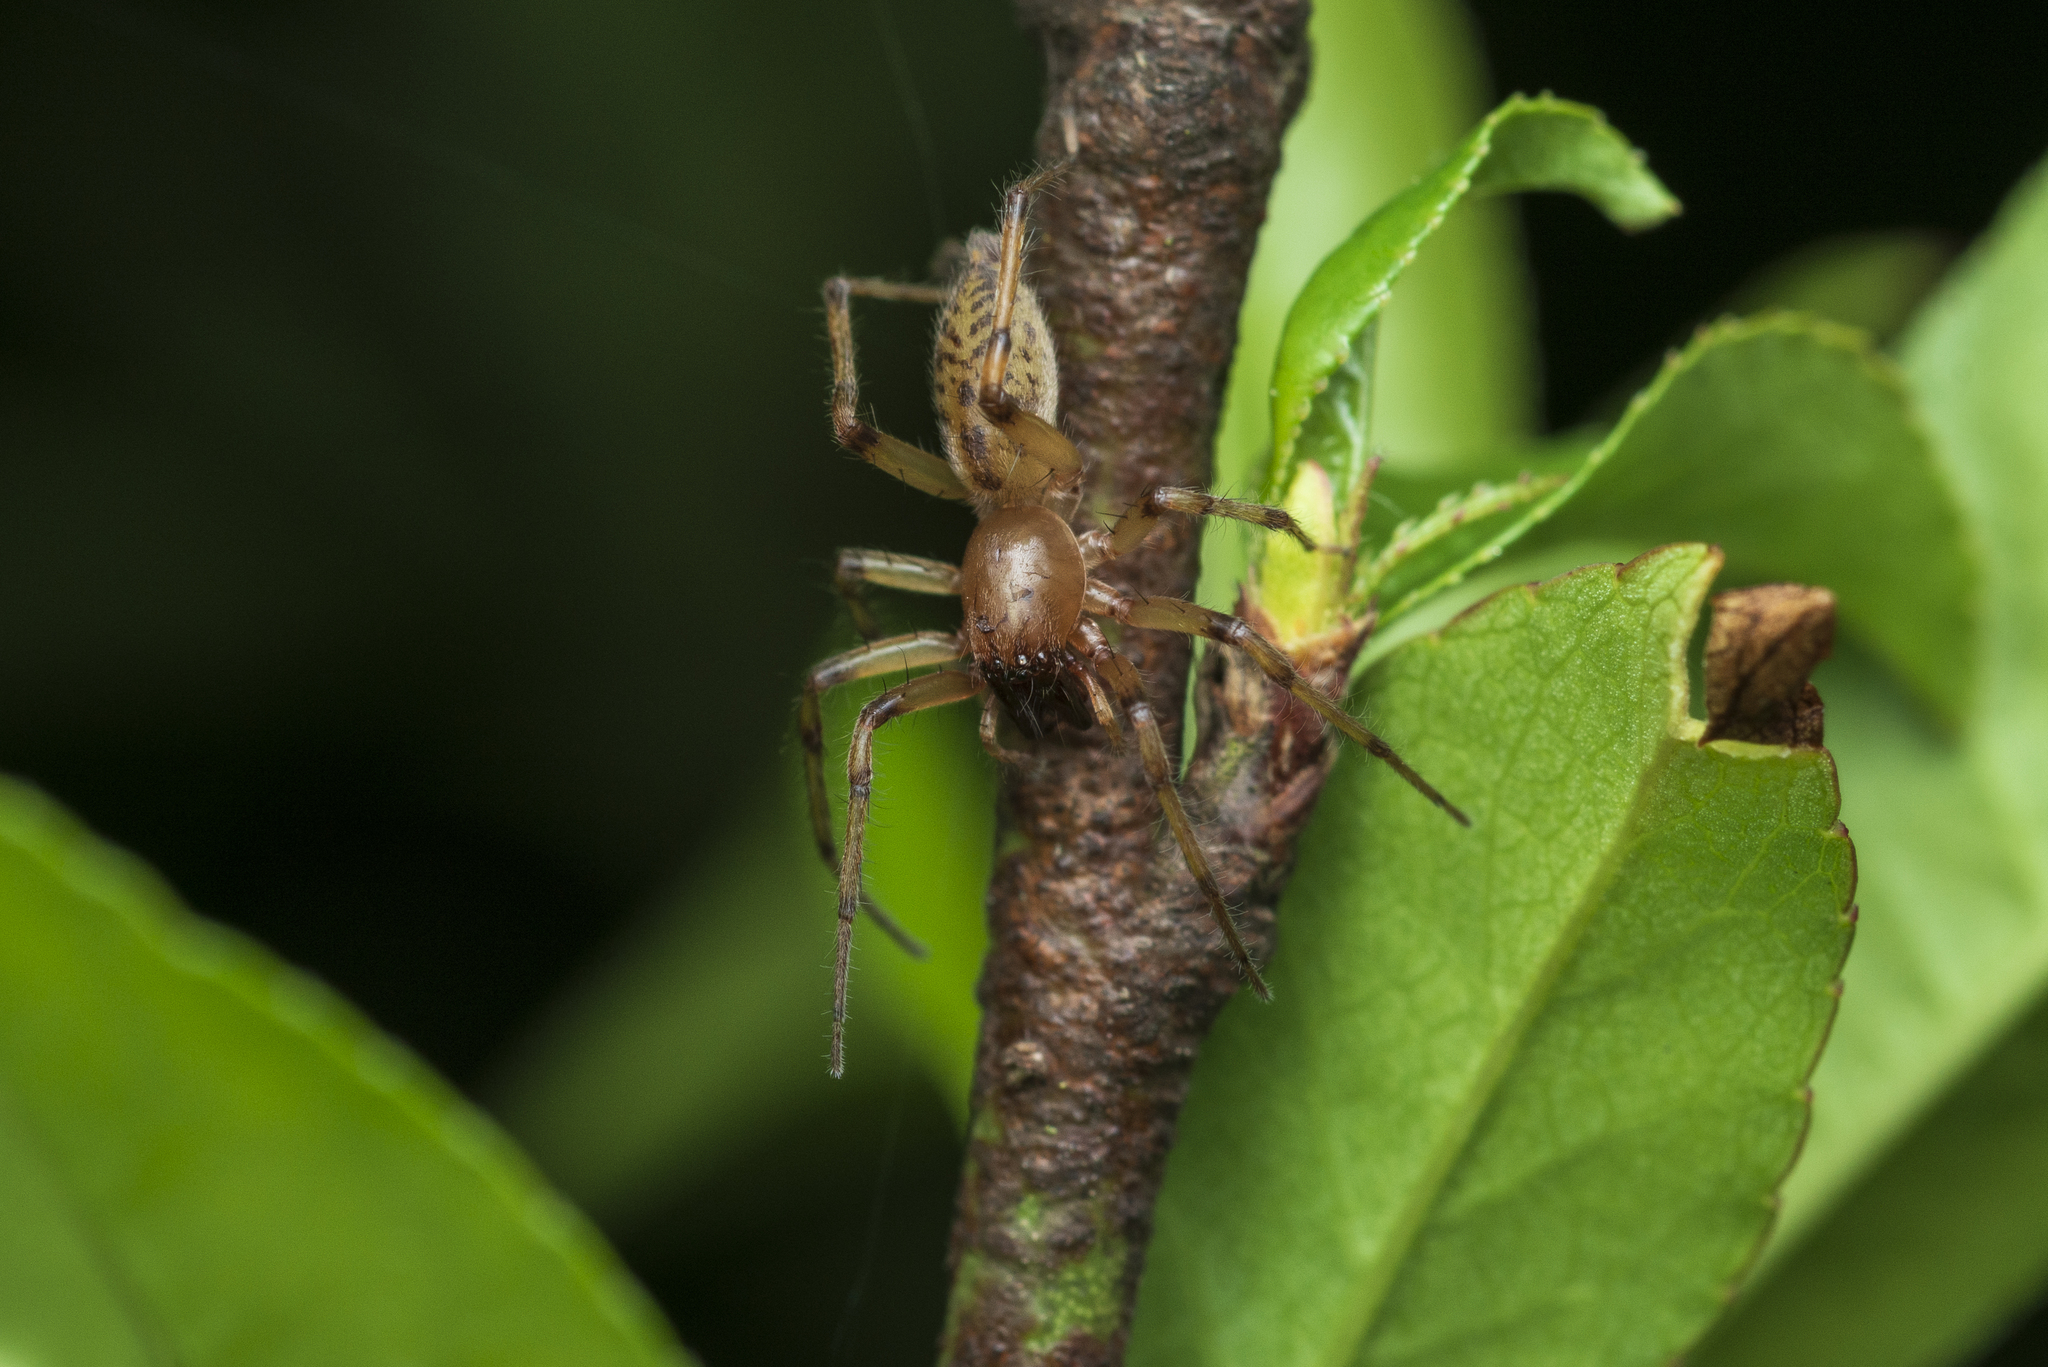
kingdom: Animalia
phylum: Arthropoda
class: Arachnida
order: Araneae
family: Clubionidae
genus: Clubiona
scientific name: Clubiona deletrix
